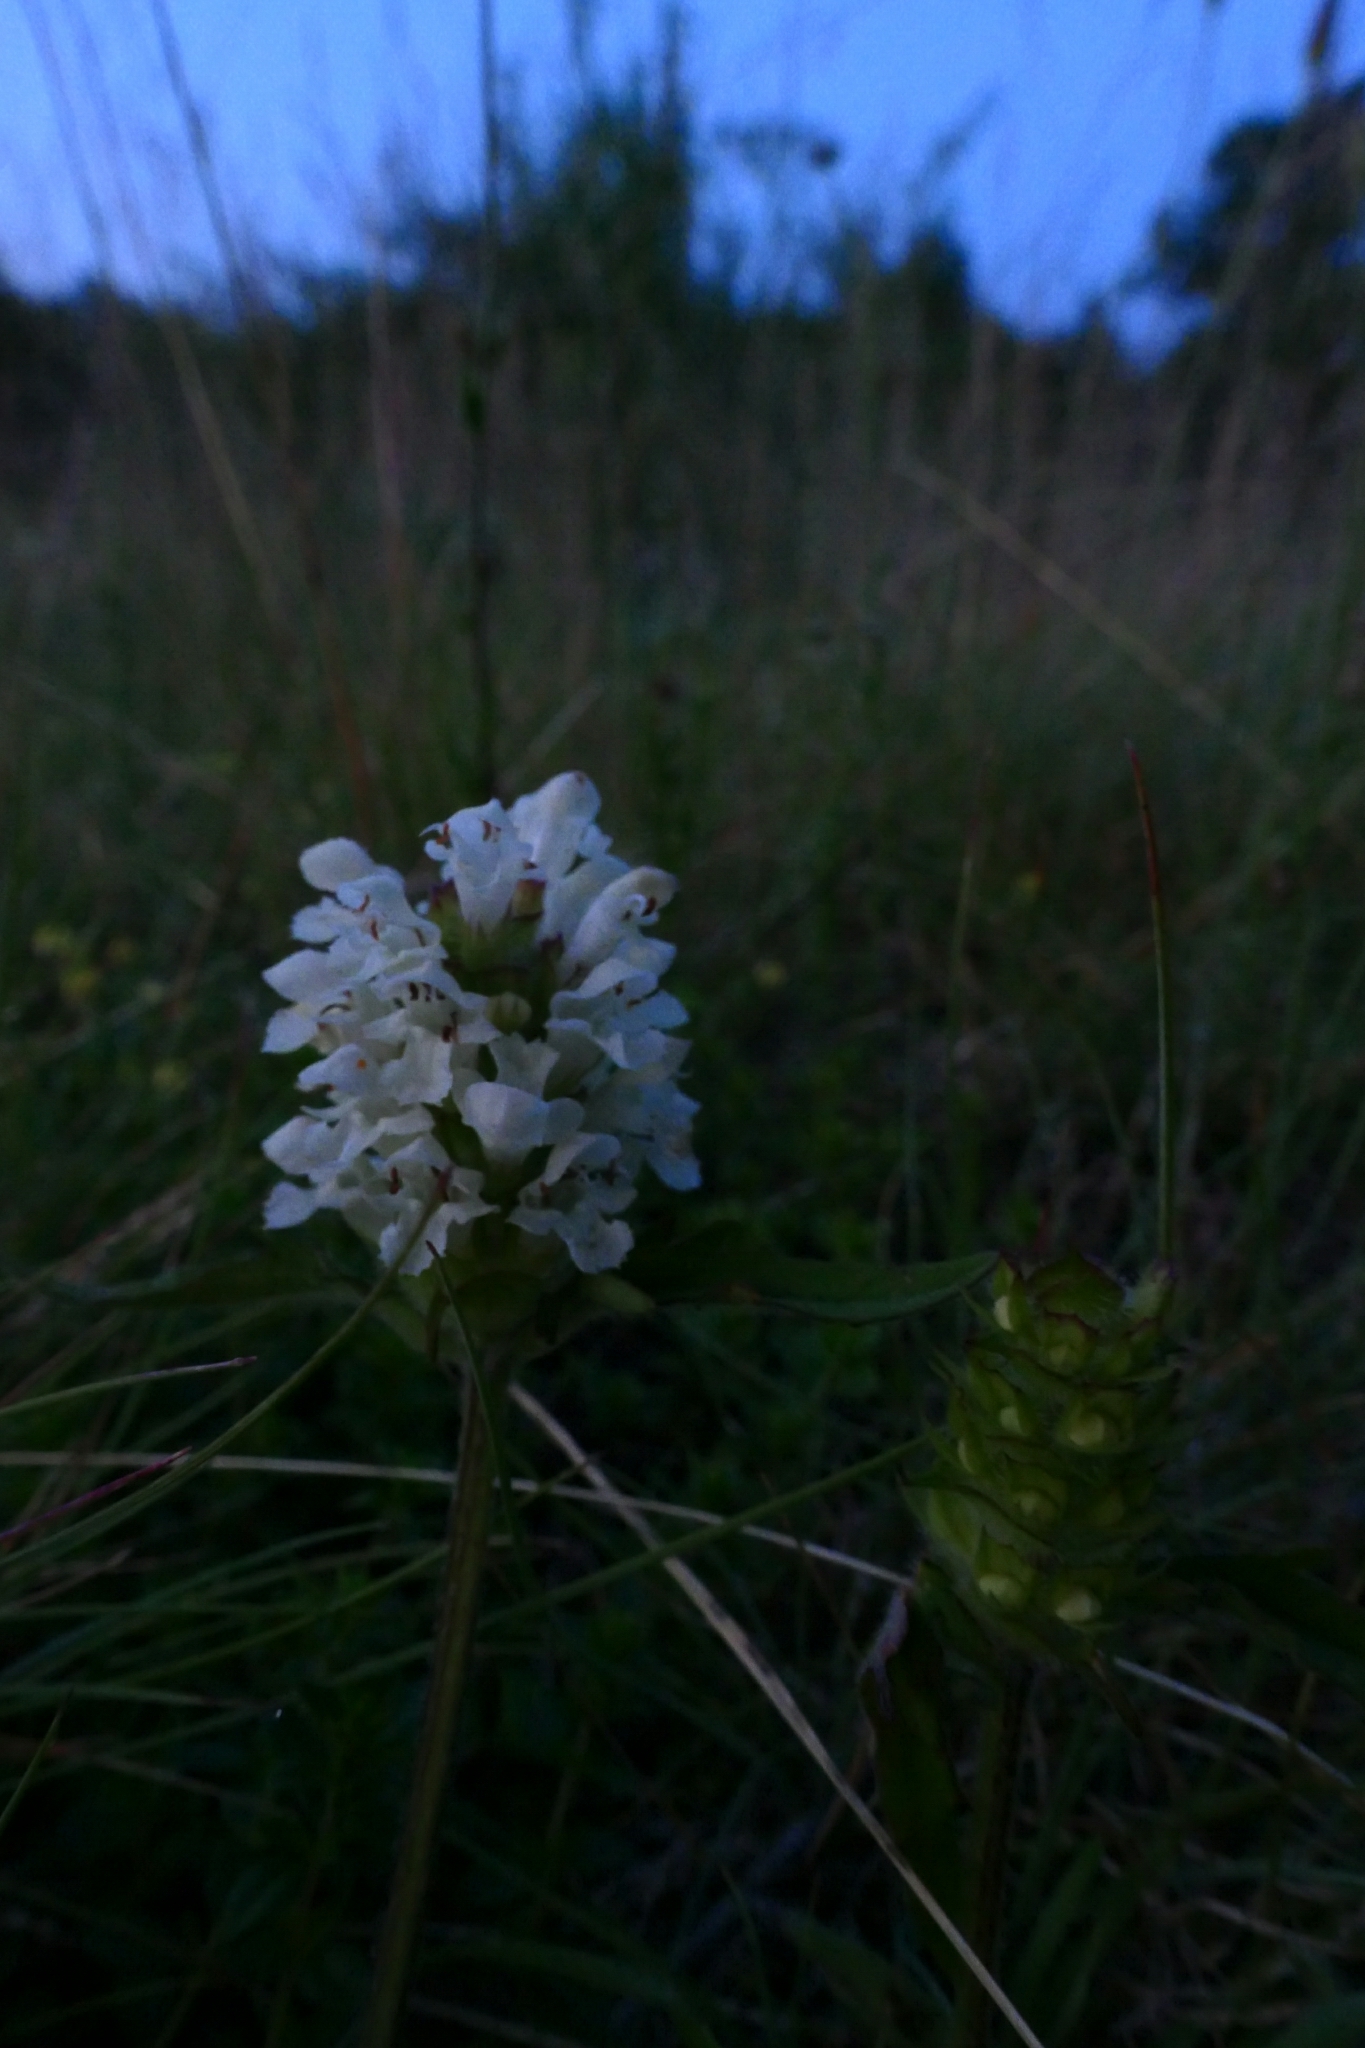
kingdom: Plantae
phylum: Tracheophyta
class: Magnoliopsida
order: Lamiales
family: Lamiaceae
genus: Prunella
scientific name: Prunella laciniata
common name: Cut-leaved selfheal
